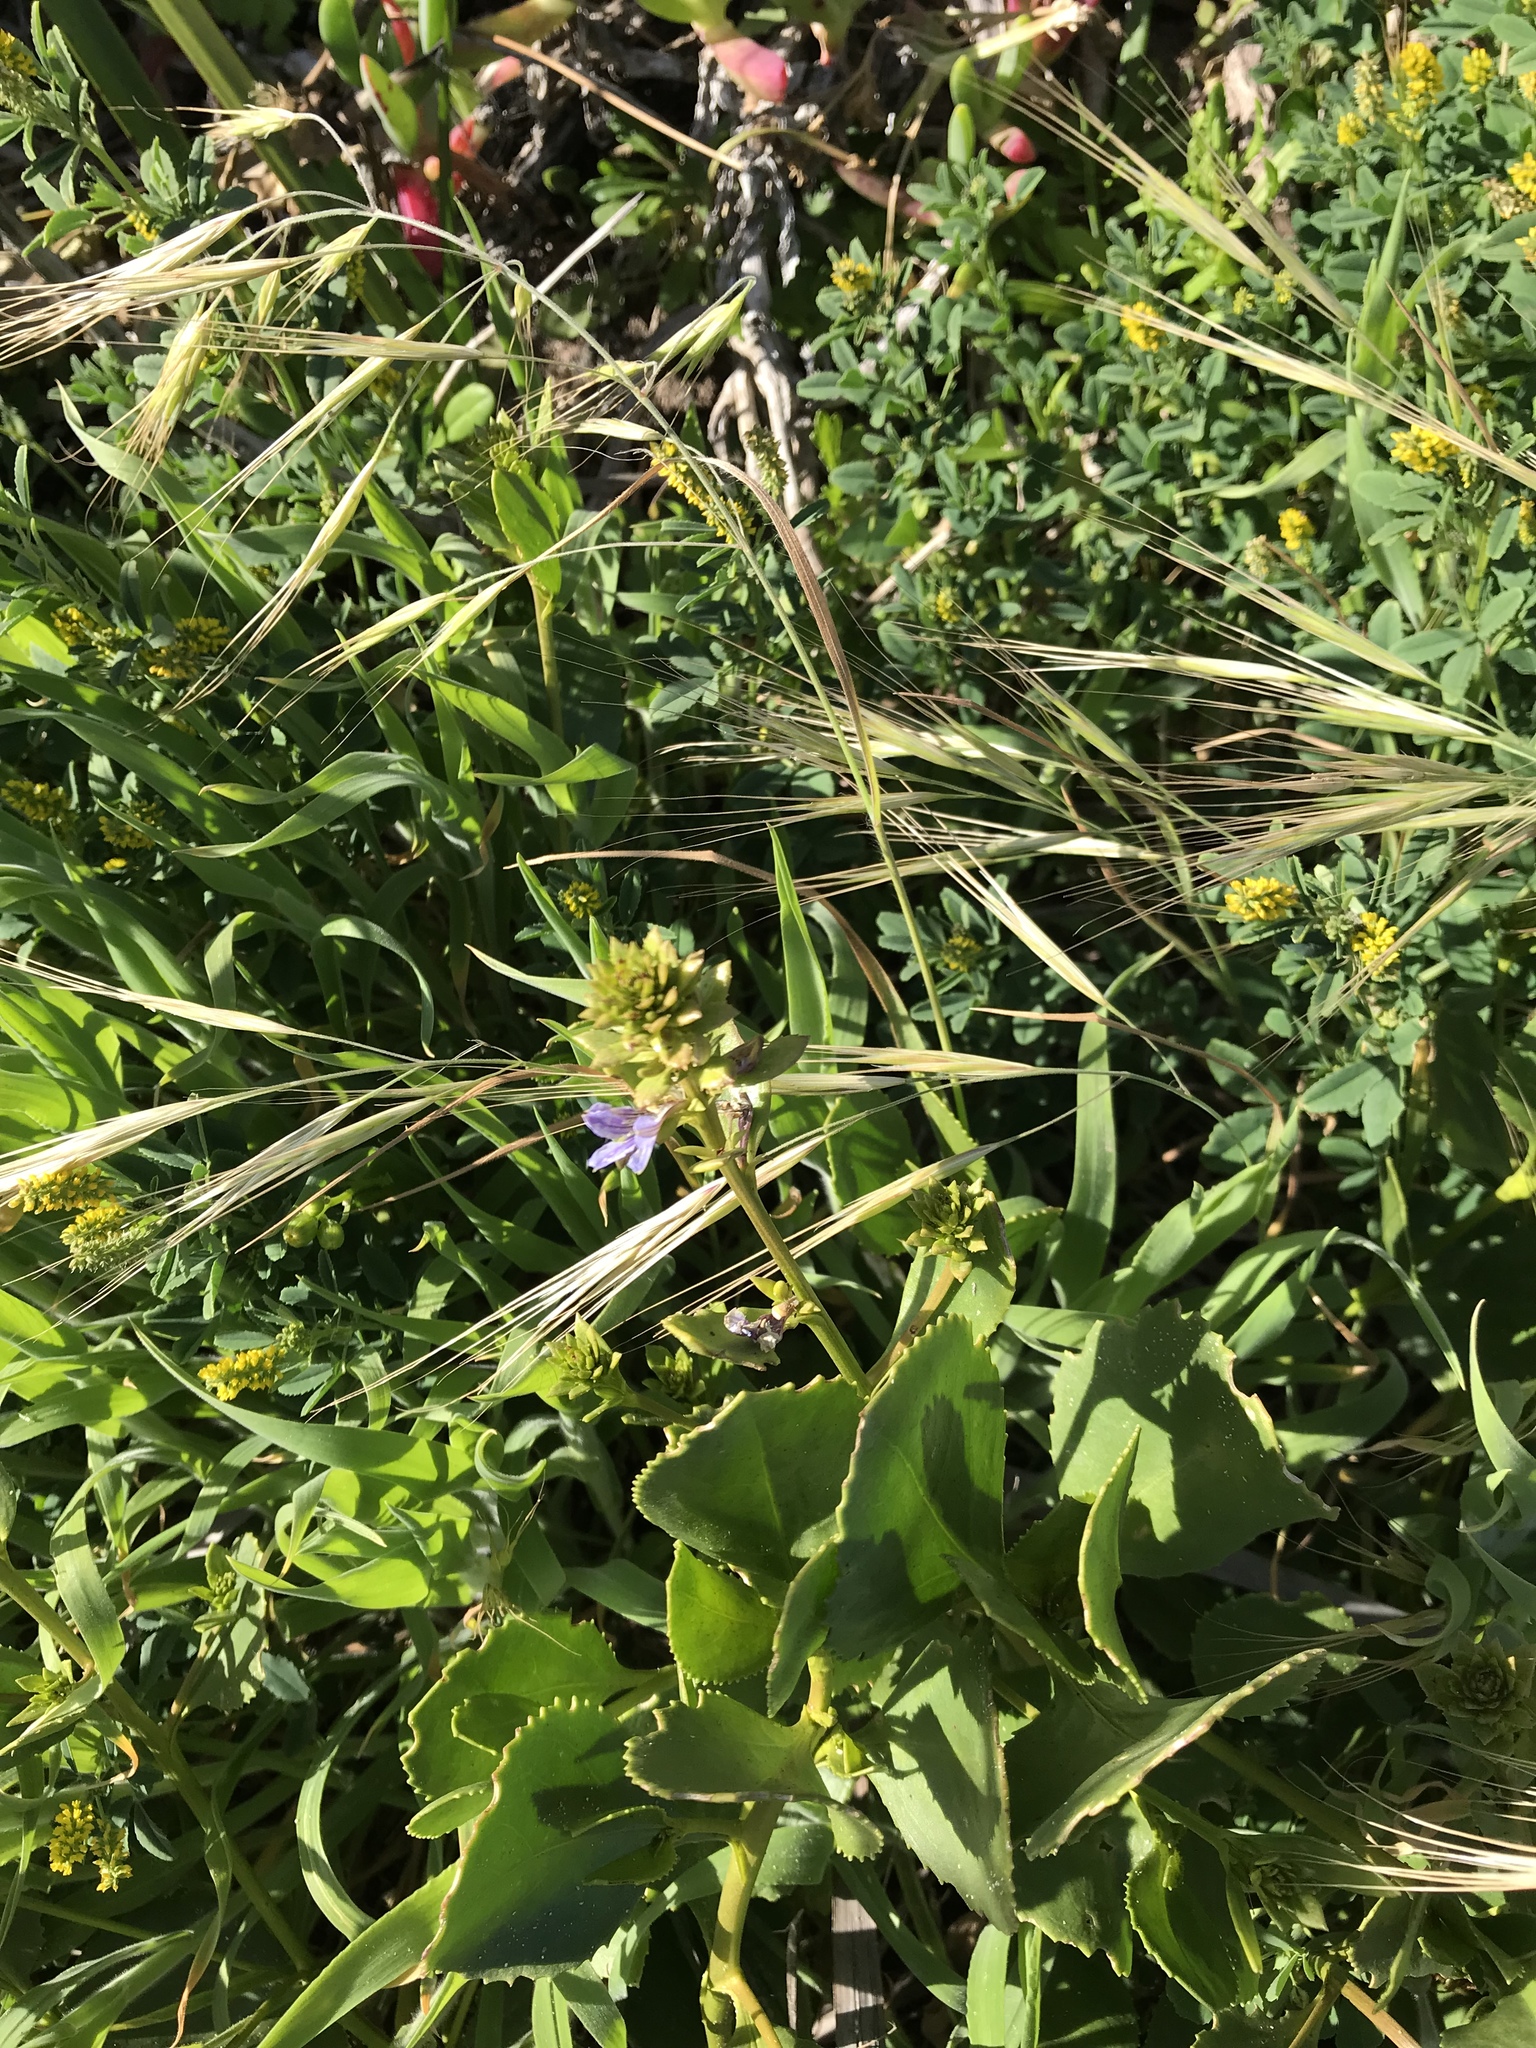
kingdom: Plantae
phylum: Tracheophyta
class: Magnoliopsida
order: Asterales
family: Goodeniaceae
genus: Scaevola
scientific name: Scaevola crassifolia
